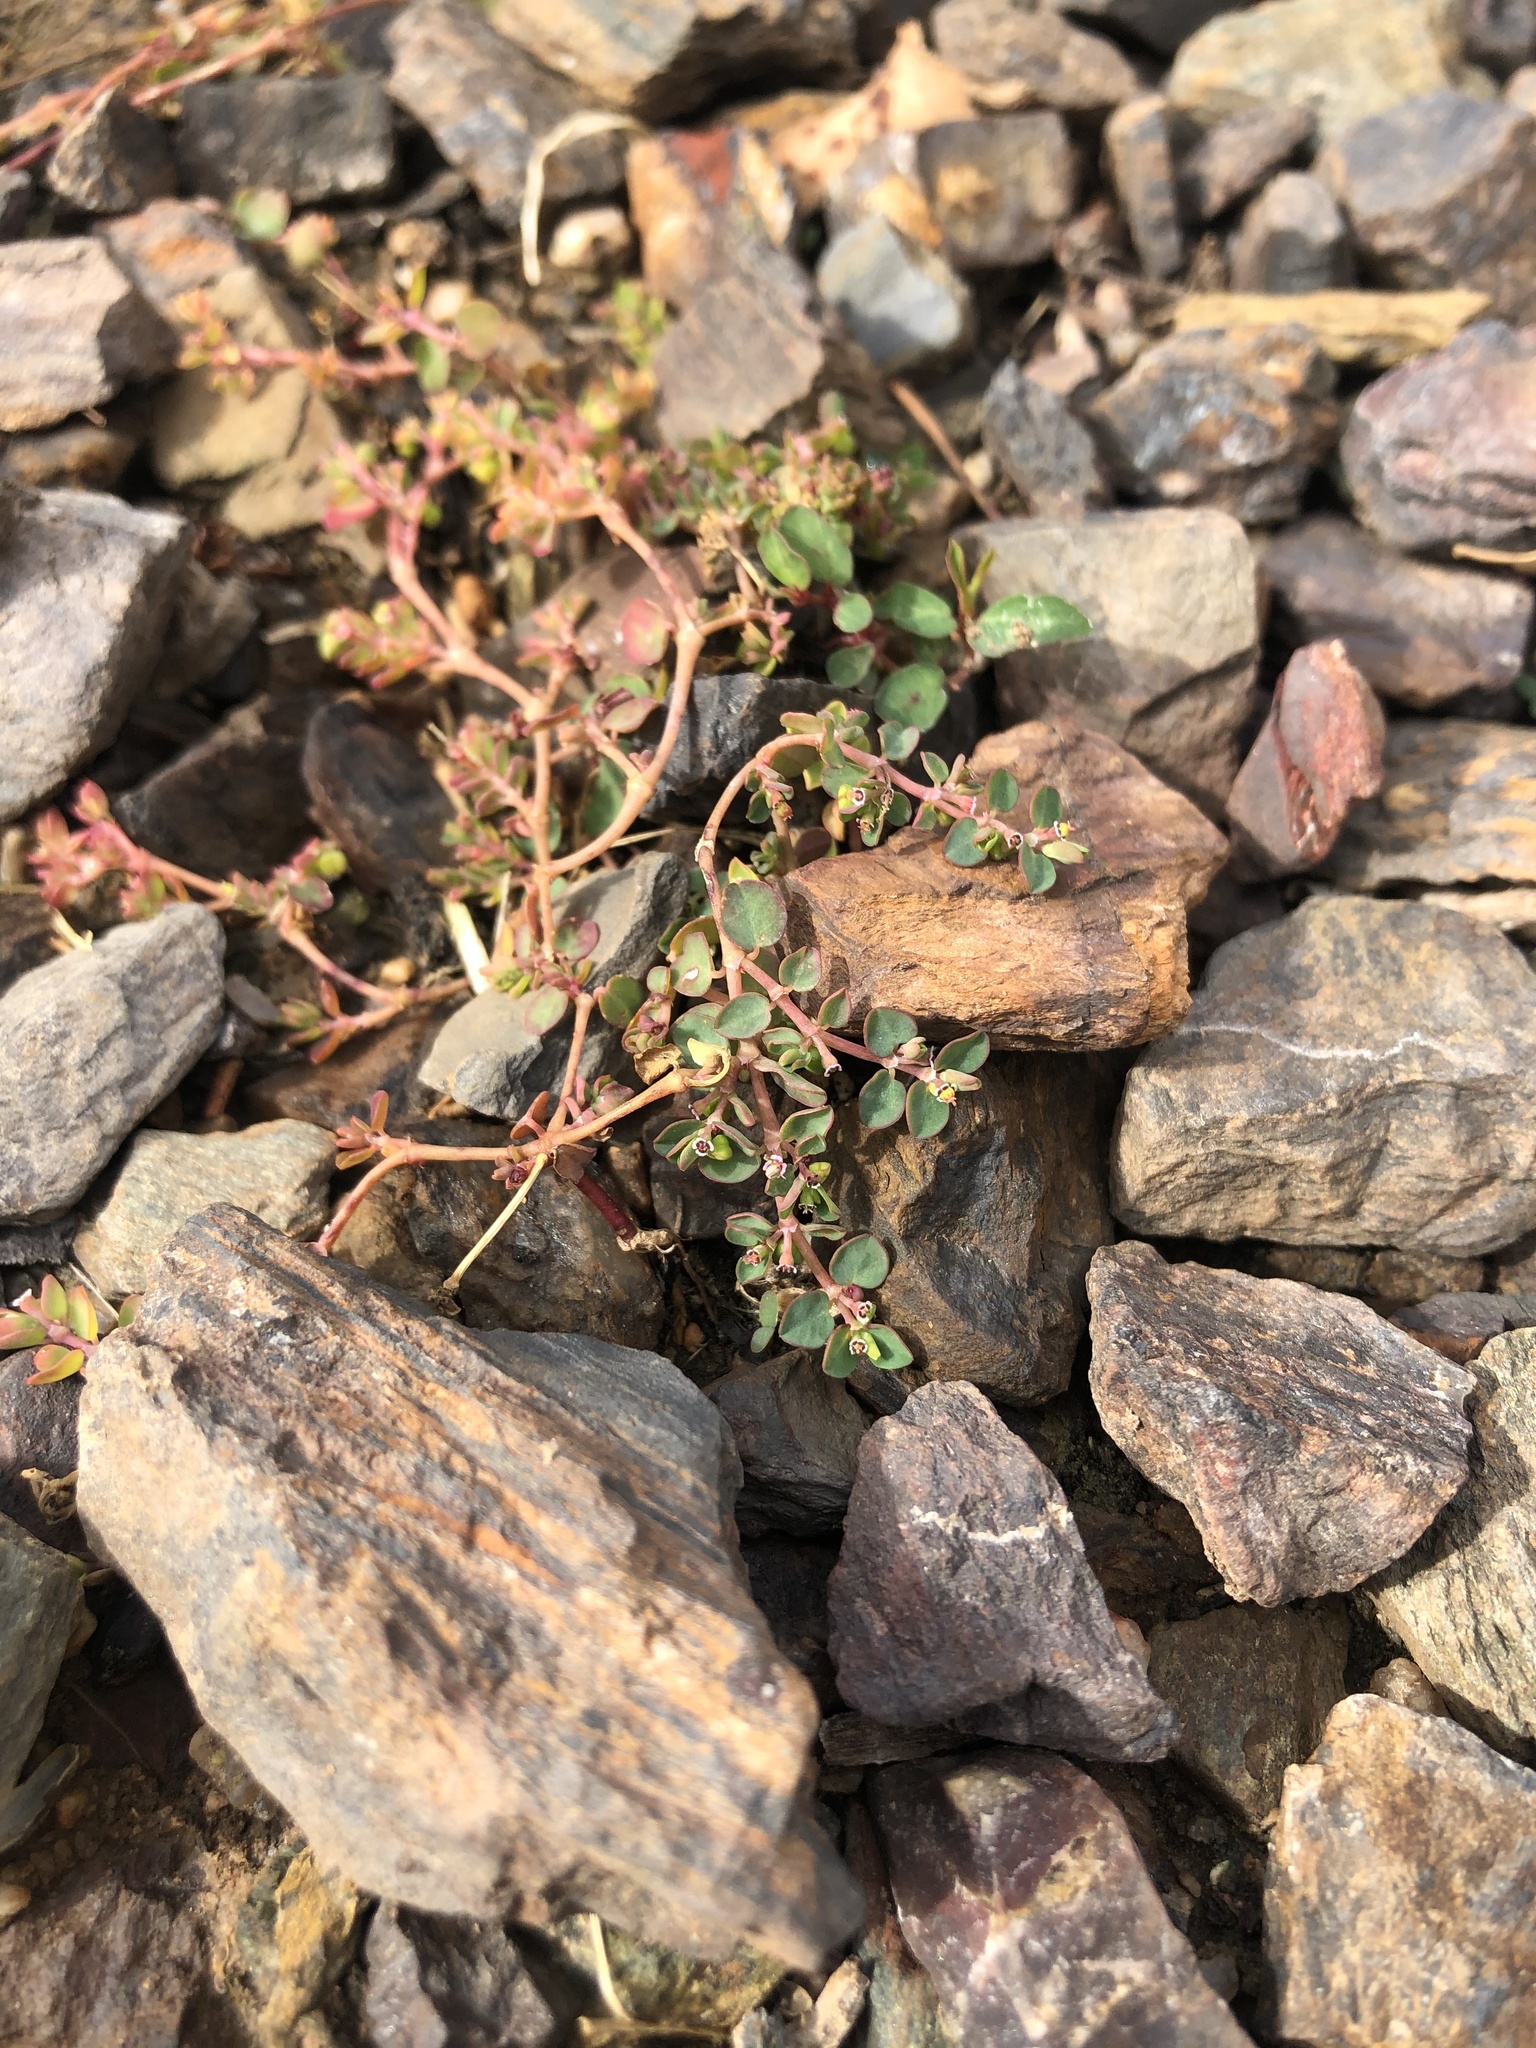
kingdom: Plantae
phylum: Tracheophyta
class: Magnoliopsida
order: Malpighiales
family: Euphorbiaceae
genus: Euphorbia
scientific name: Euphorbia serpens
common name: Matted sandmat
